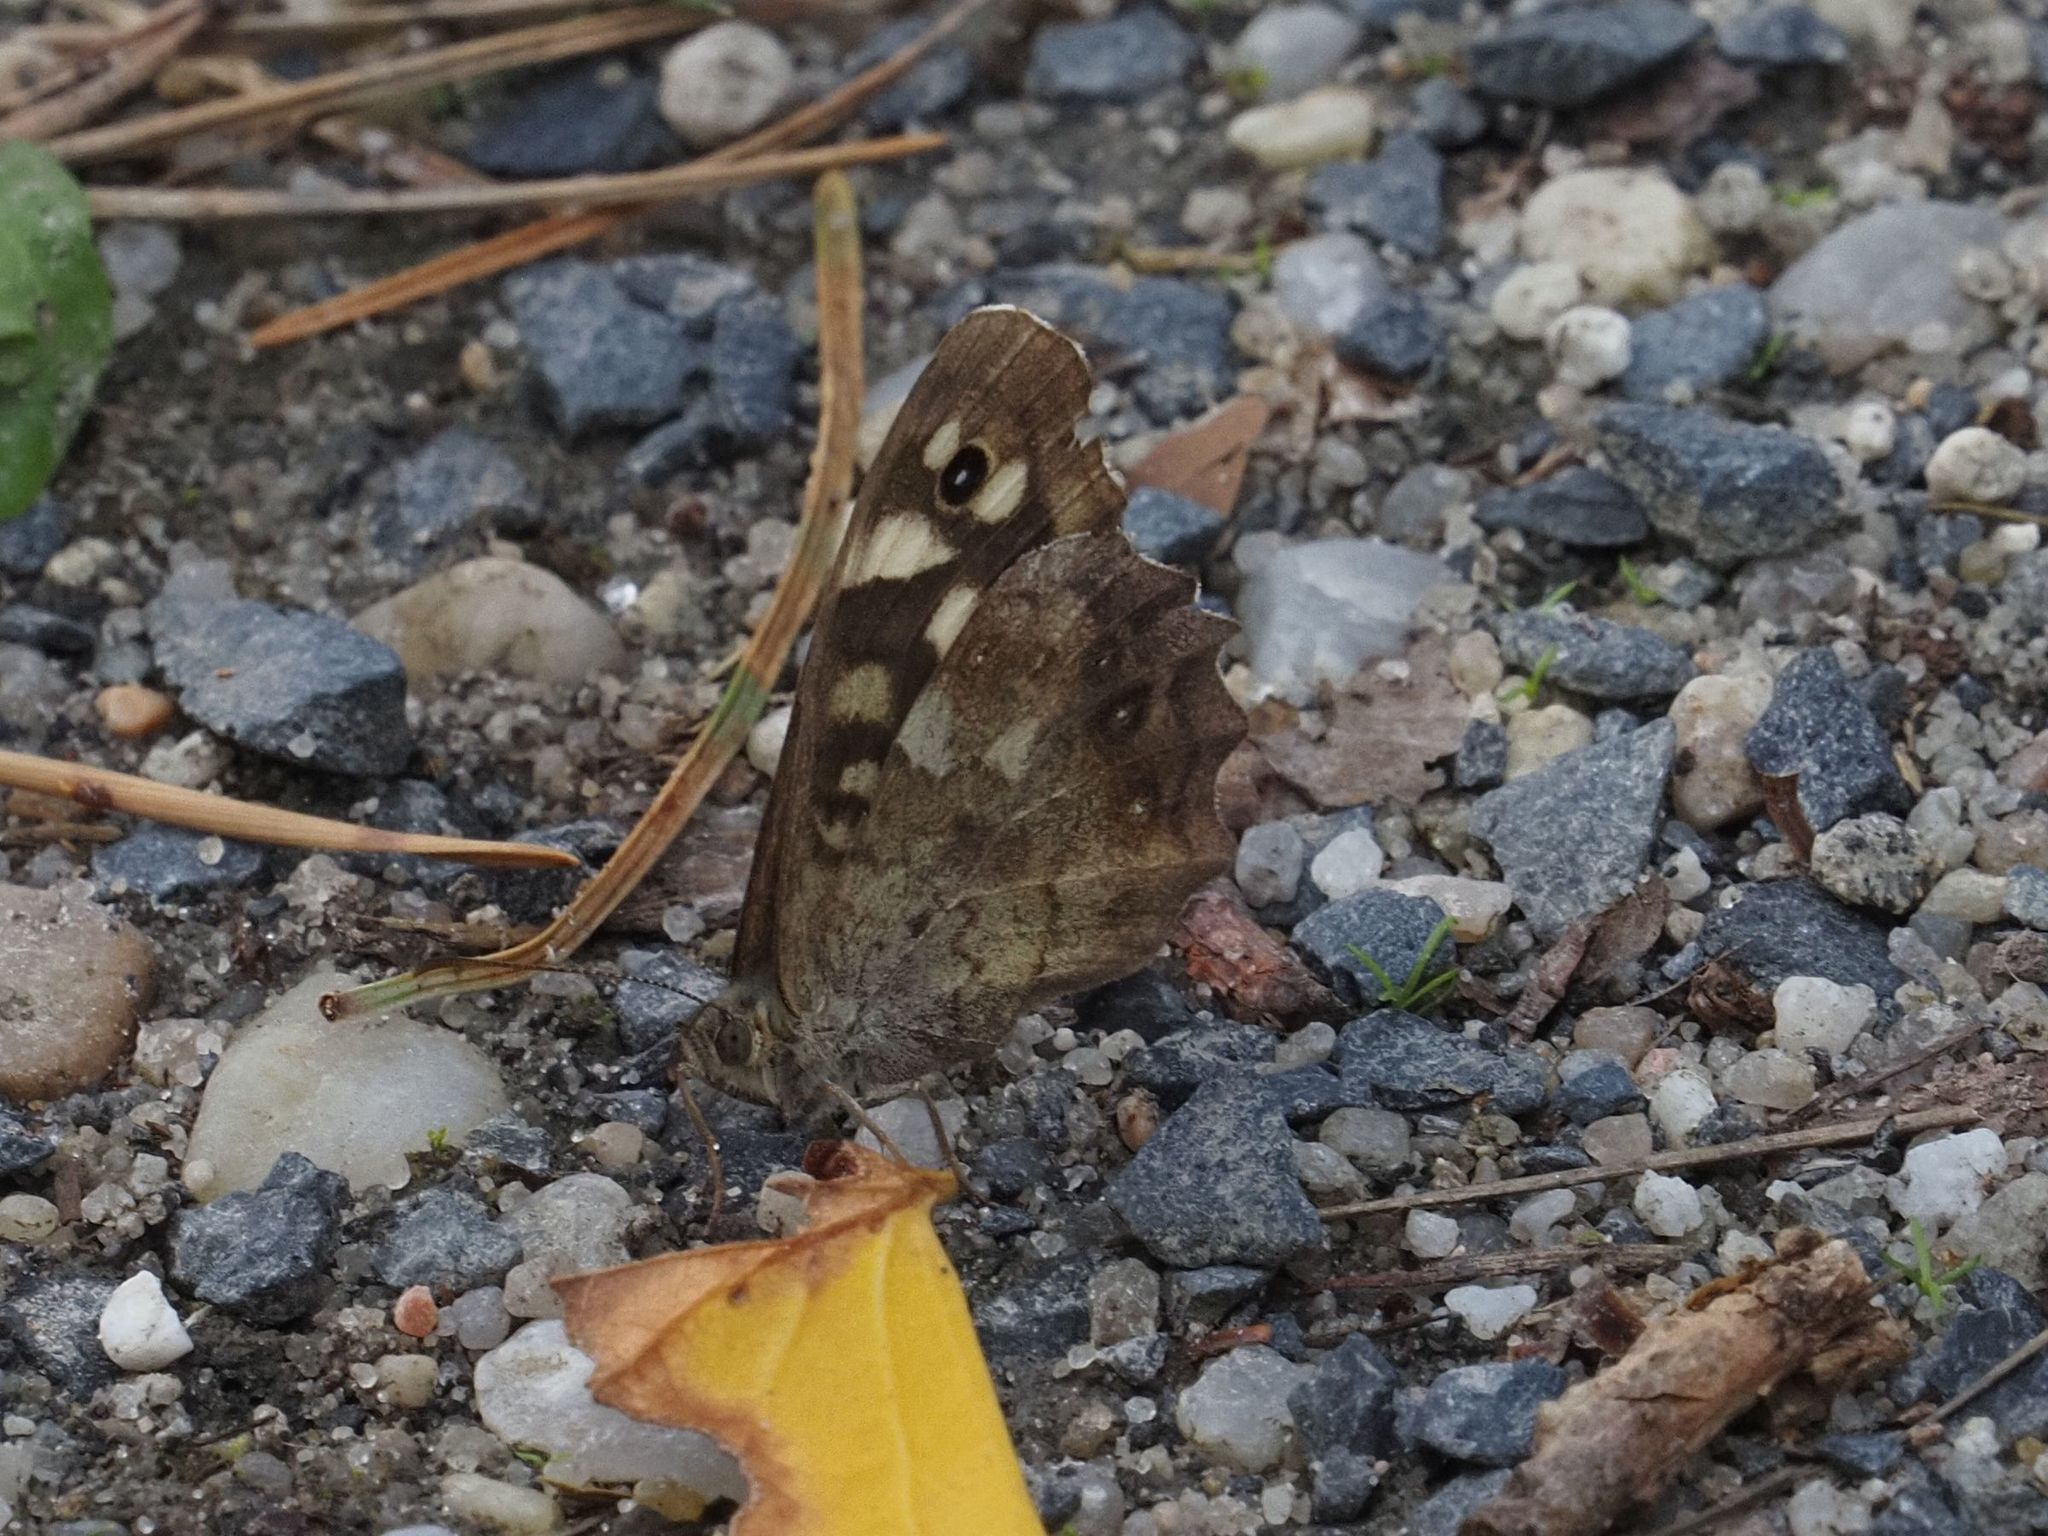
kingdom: Animalia
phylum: Arthropoda
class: Insecta
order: Lepidoptera
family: Nymphalidae
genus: Pararge
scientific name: Pararge aegeria
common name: Speckled wood
